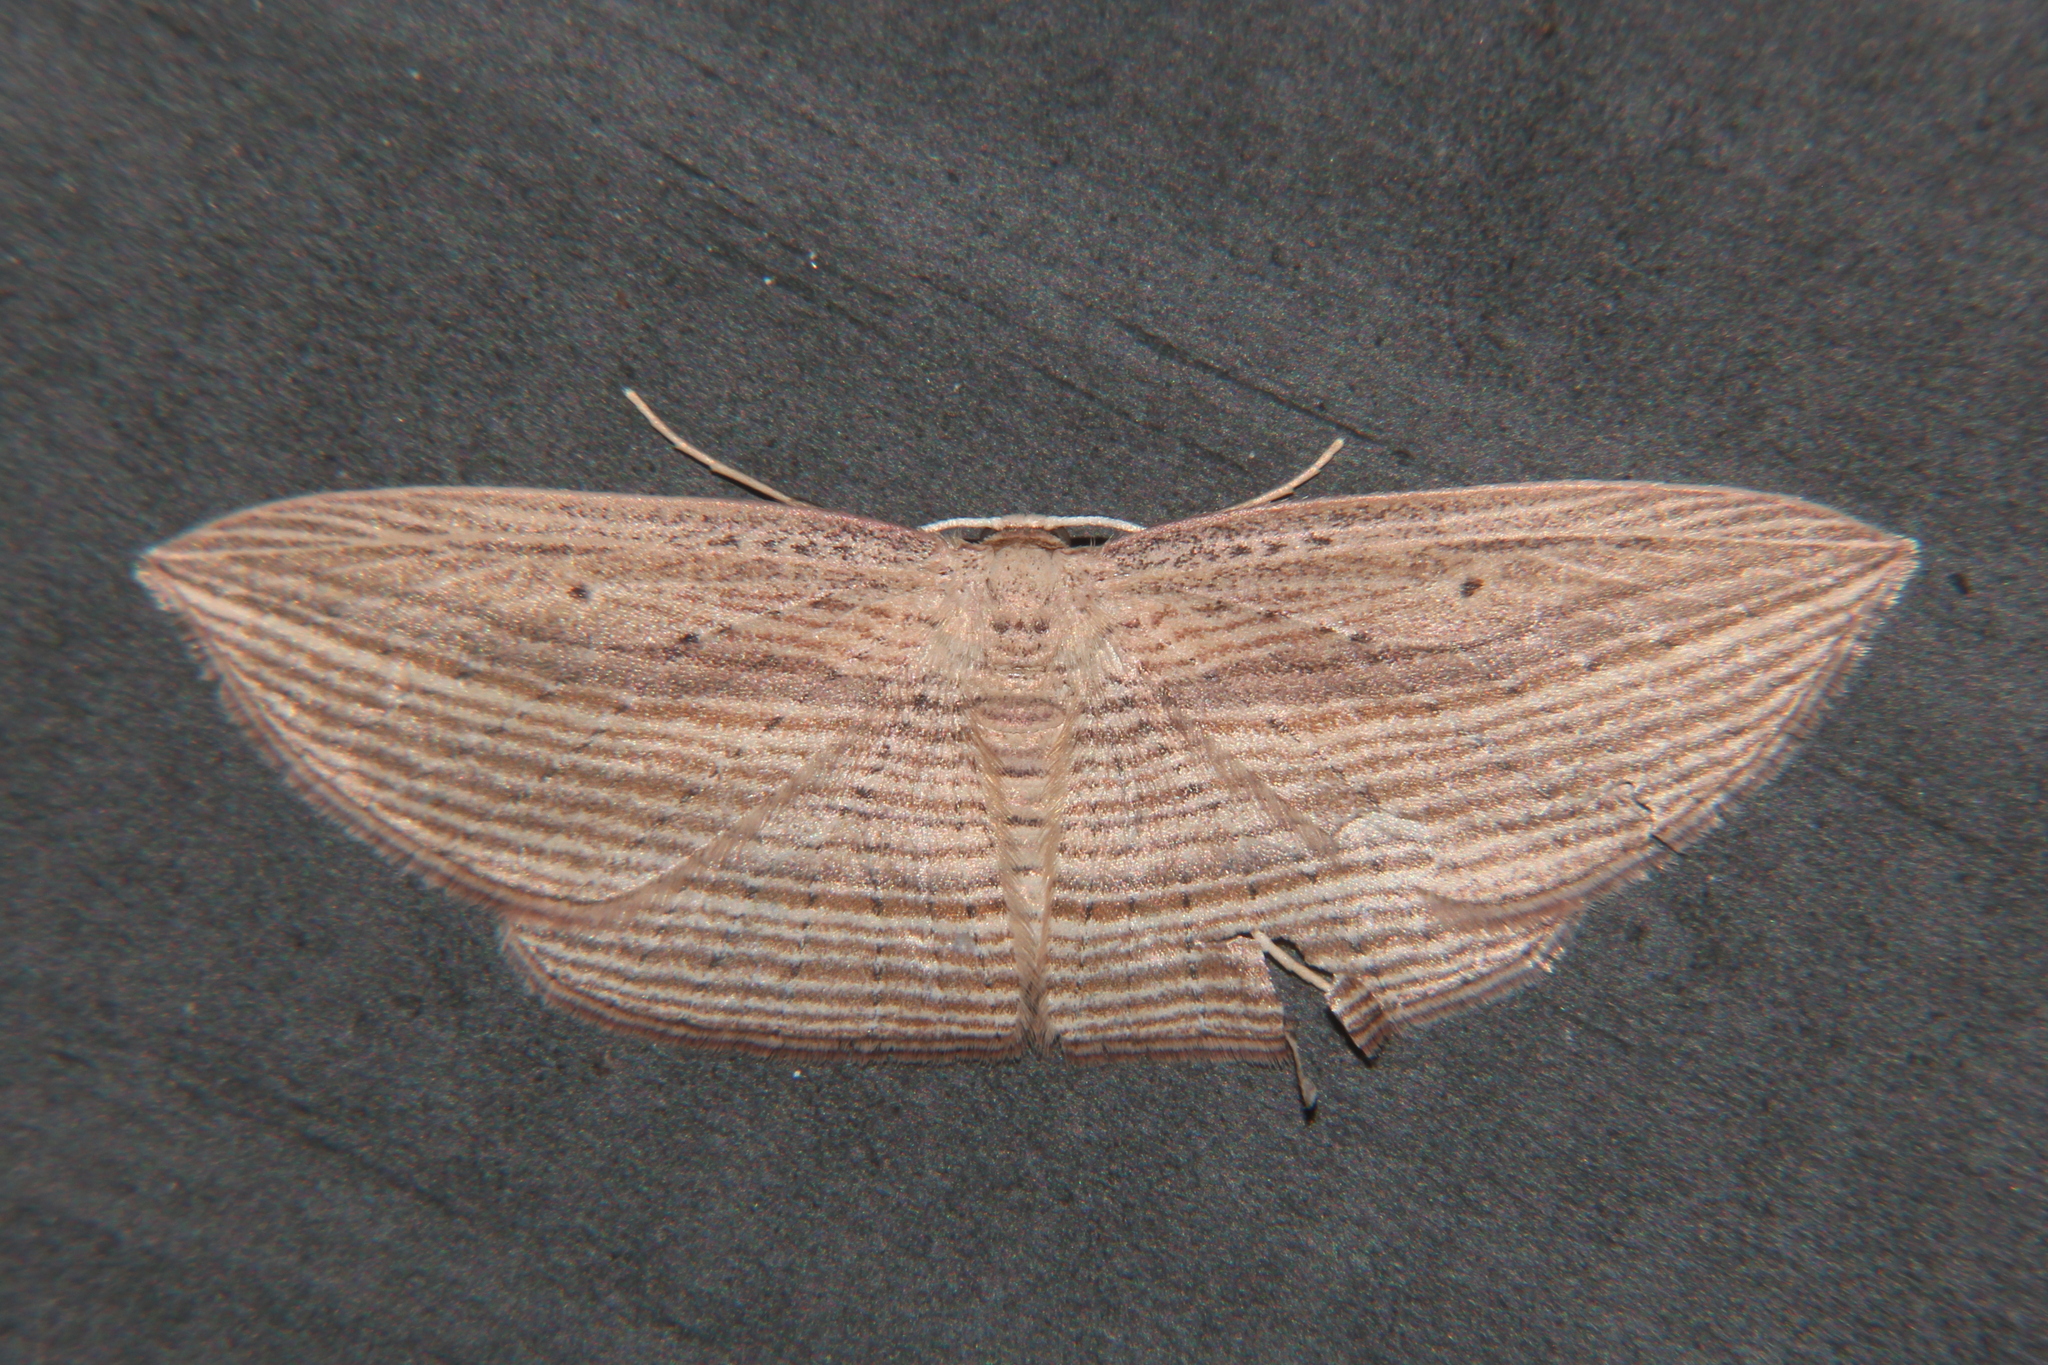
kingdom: Animalia
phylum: Arthropoda
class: Insecta
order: Lepidoptera
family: Geometridae
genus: Epiphryne
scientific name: Epiphryne verriculata
